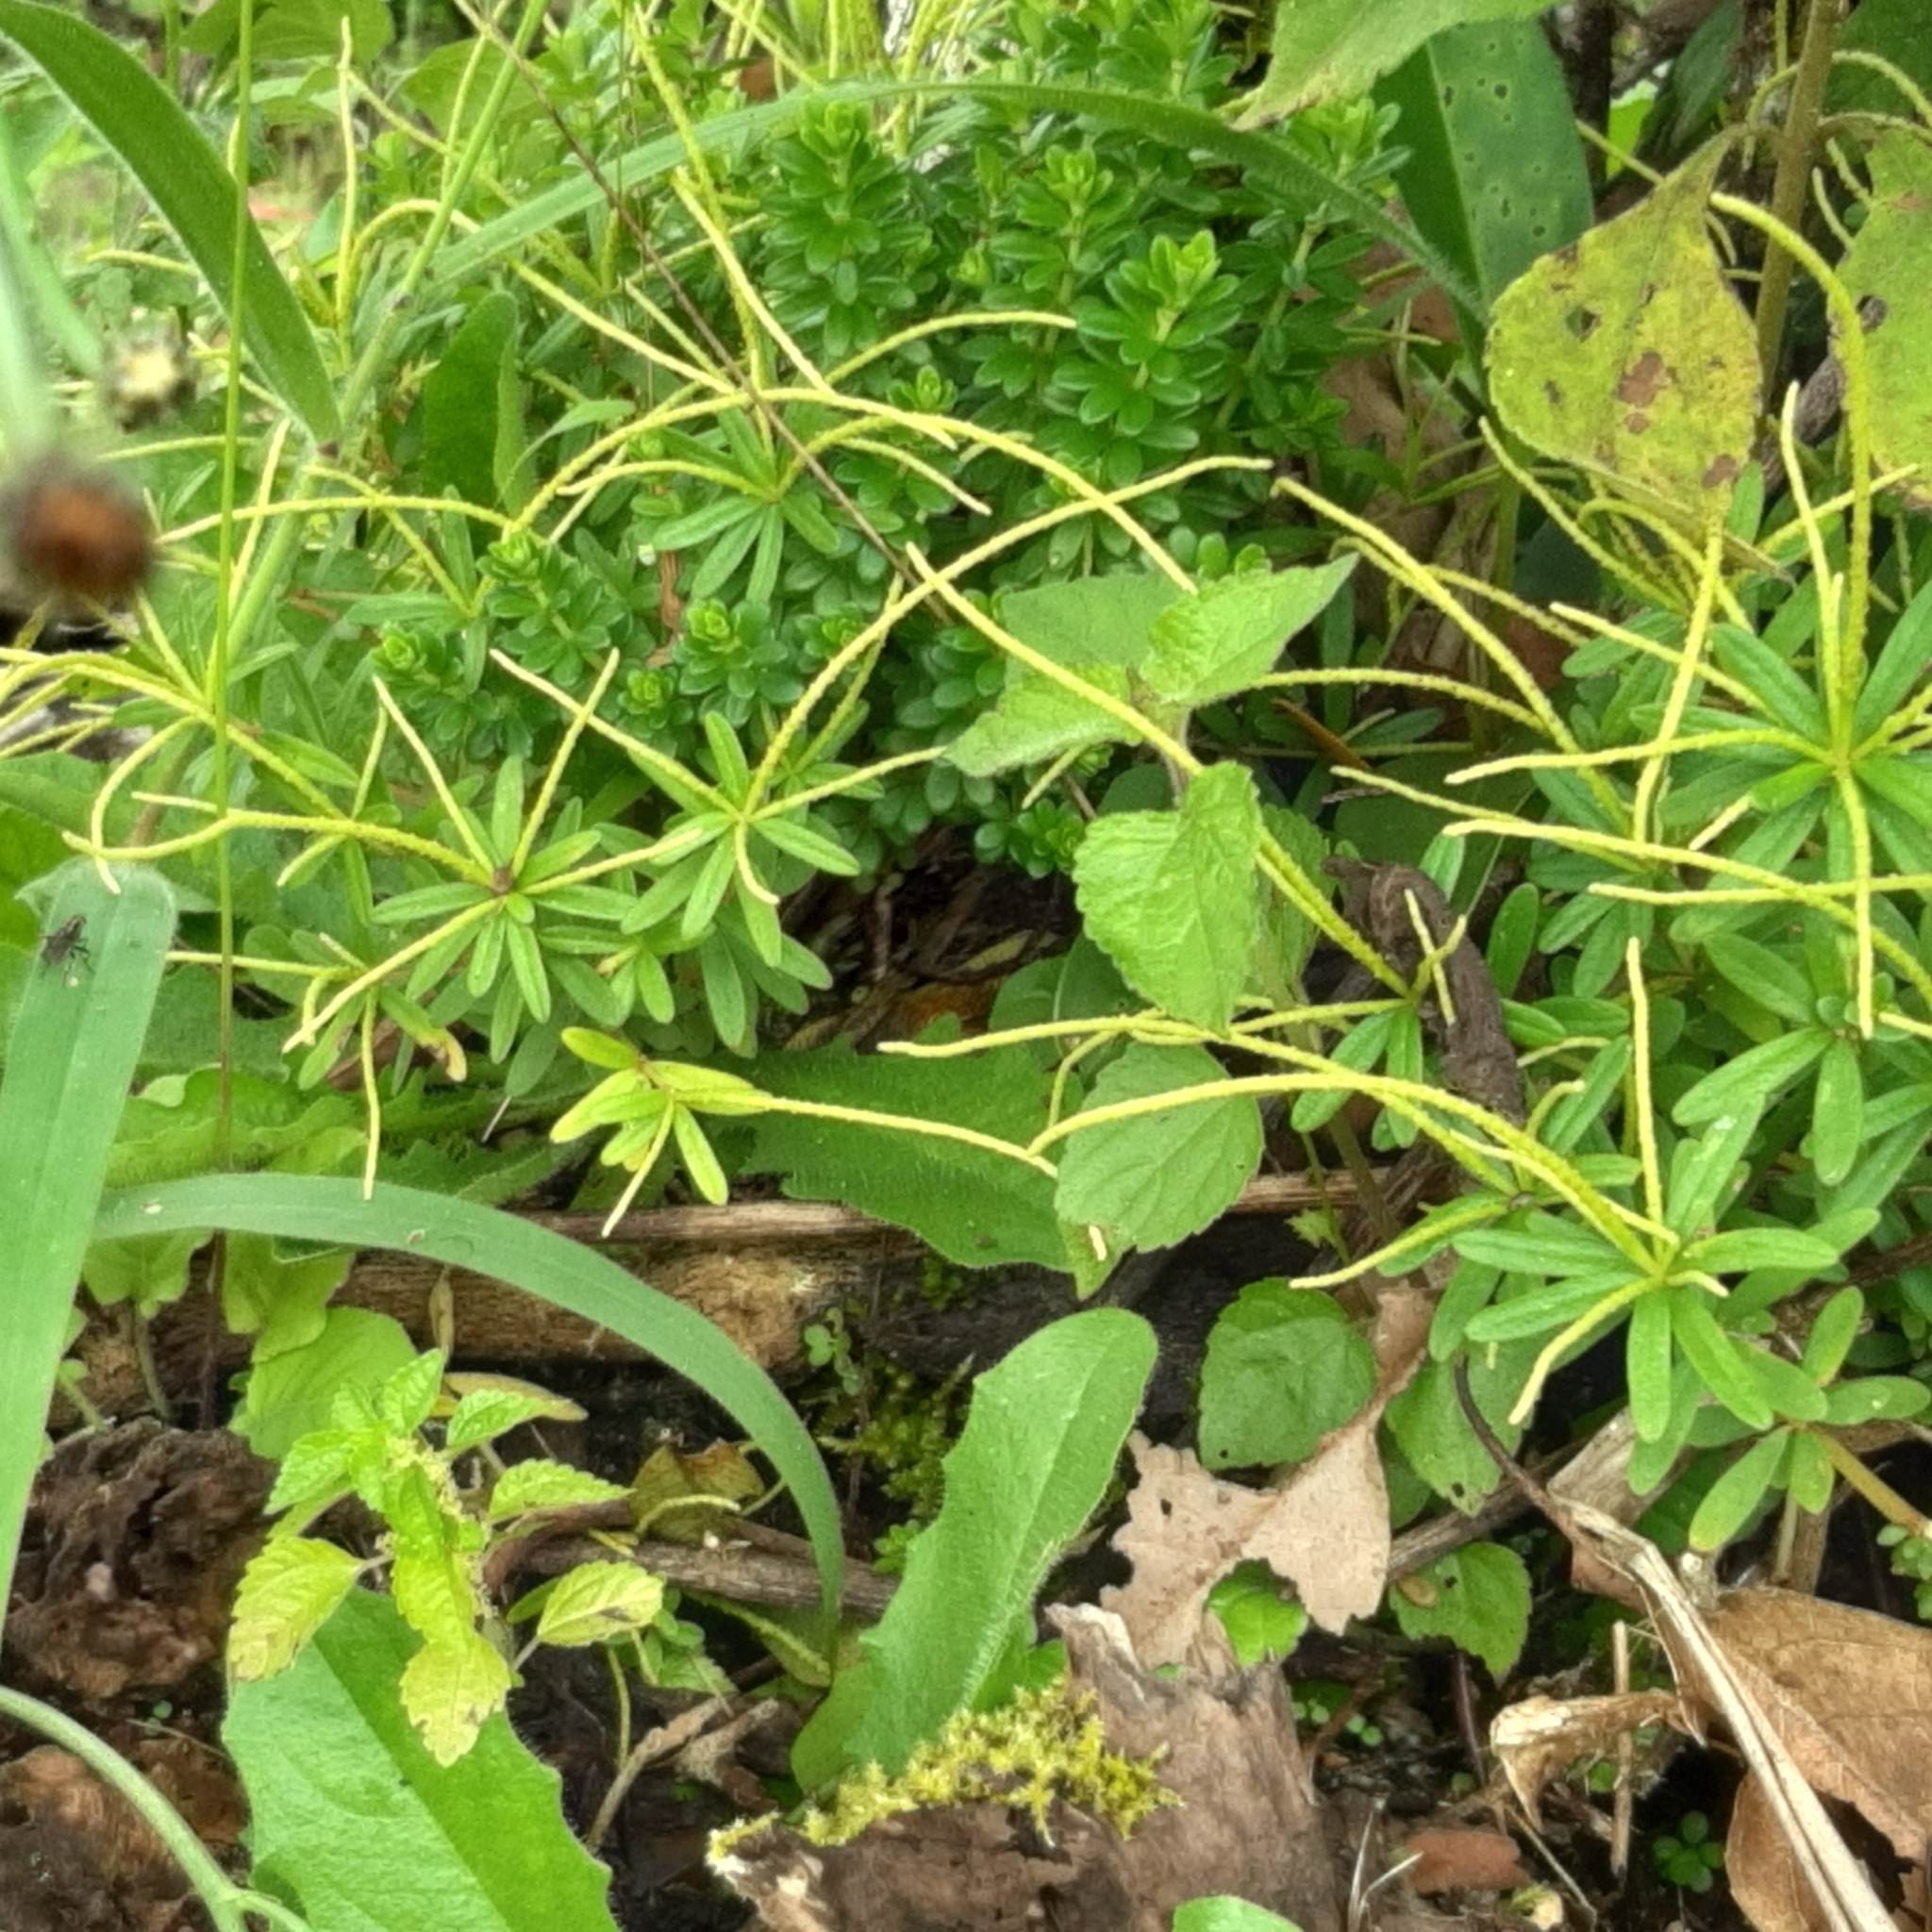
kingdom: Plantae
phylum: Tracheophyta
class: Magnoliopsida
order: Piperales
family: Piperaceae
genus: Peperomia
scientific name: Peperomia galioides
